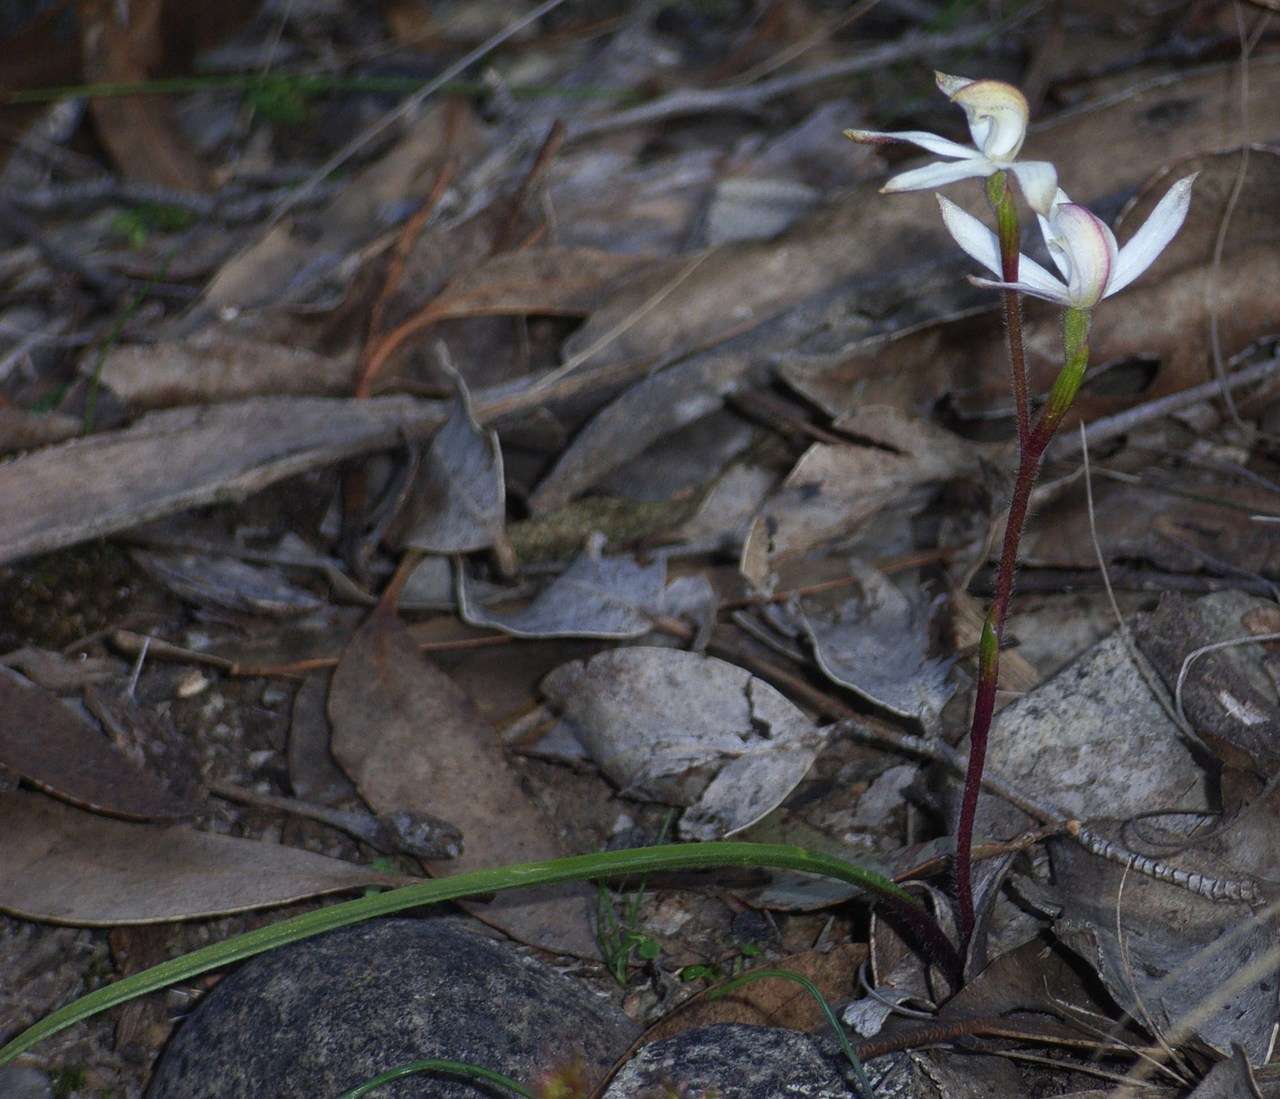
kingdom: Plantae
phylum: Tracheophyta
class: Liliopsida
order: Asparagales
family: Orchidaceae
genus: Caladenia
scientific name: Caladenia dimorpha
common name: Spicy caps
